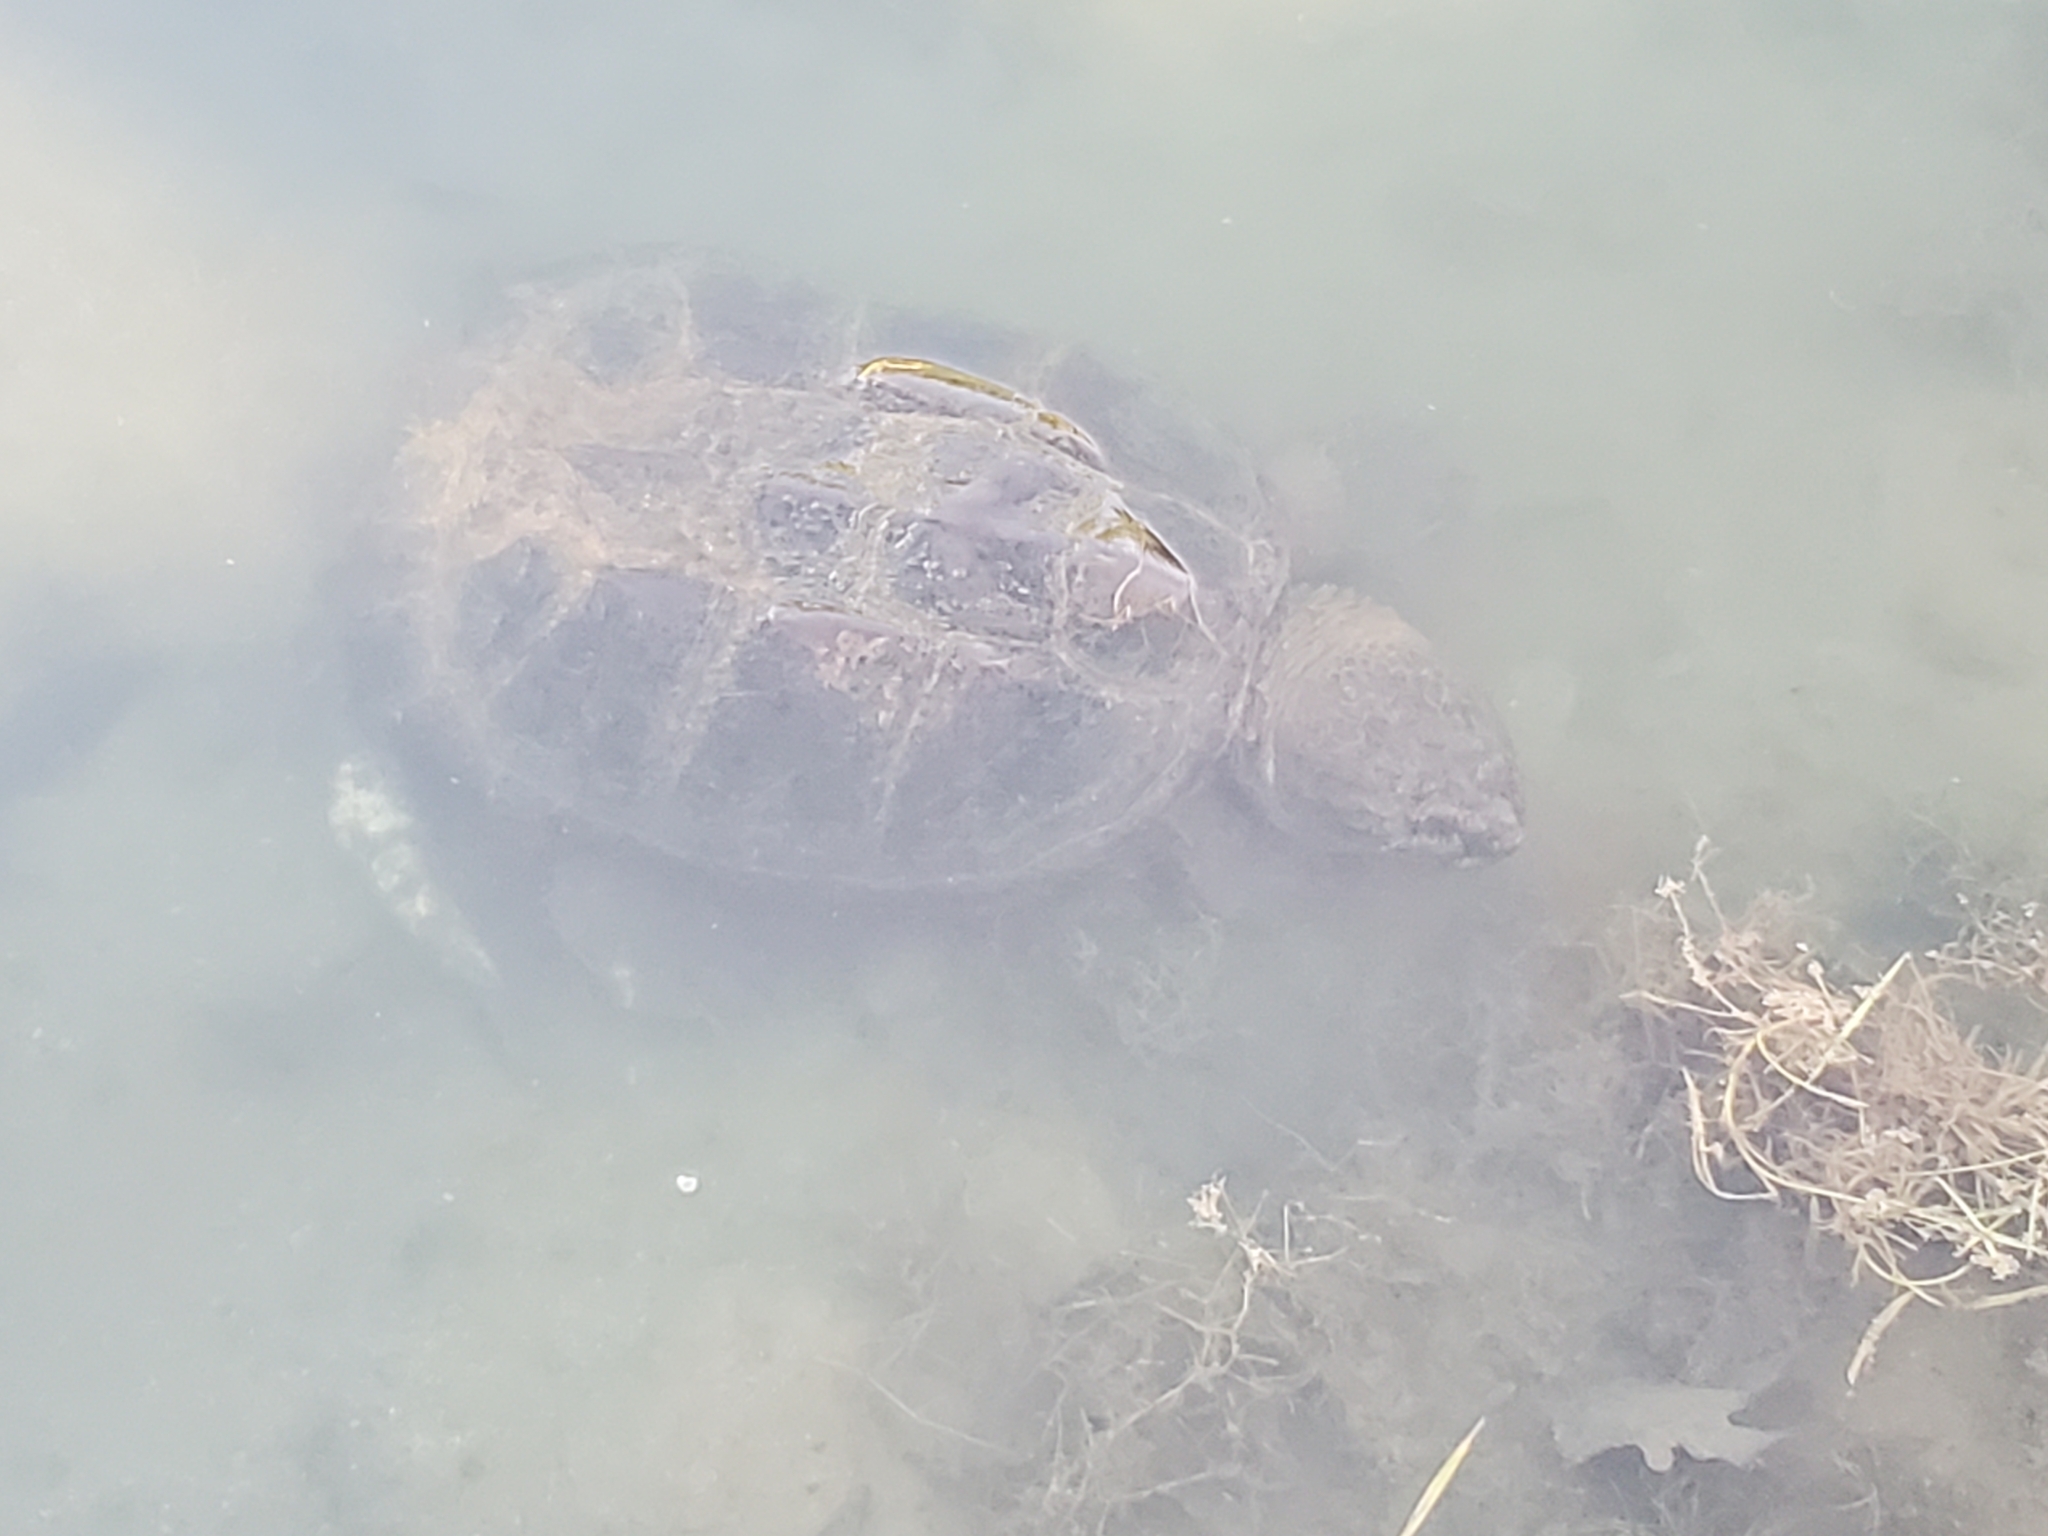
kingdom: Animalia
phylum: Chordata
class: Testudines
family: Chelydridae
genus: Chelydra
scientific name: Chelydra serpentina
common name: Common snapping turtle
